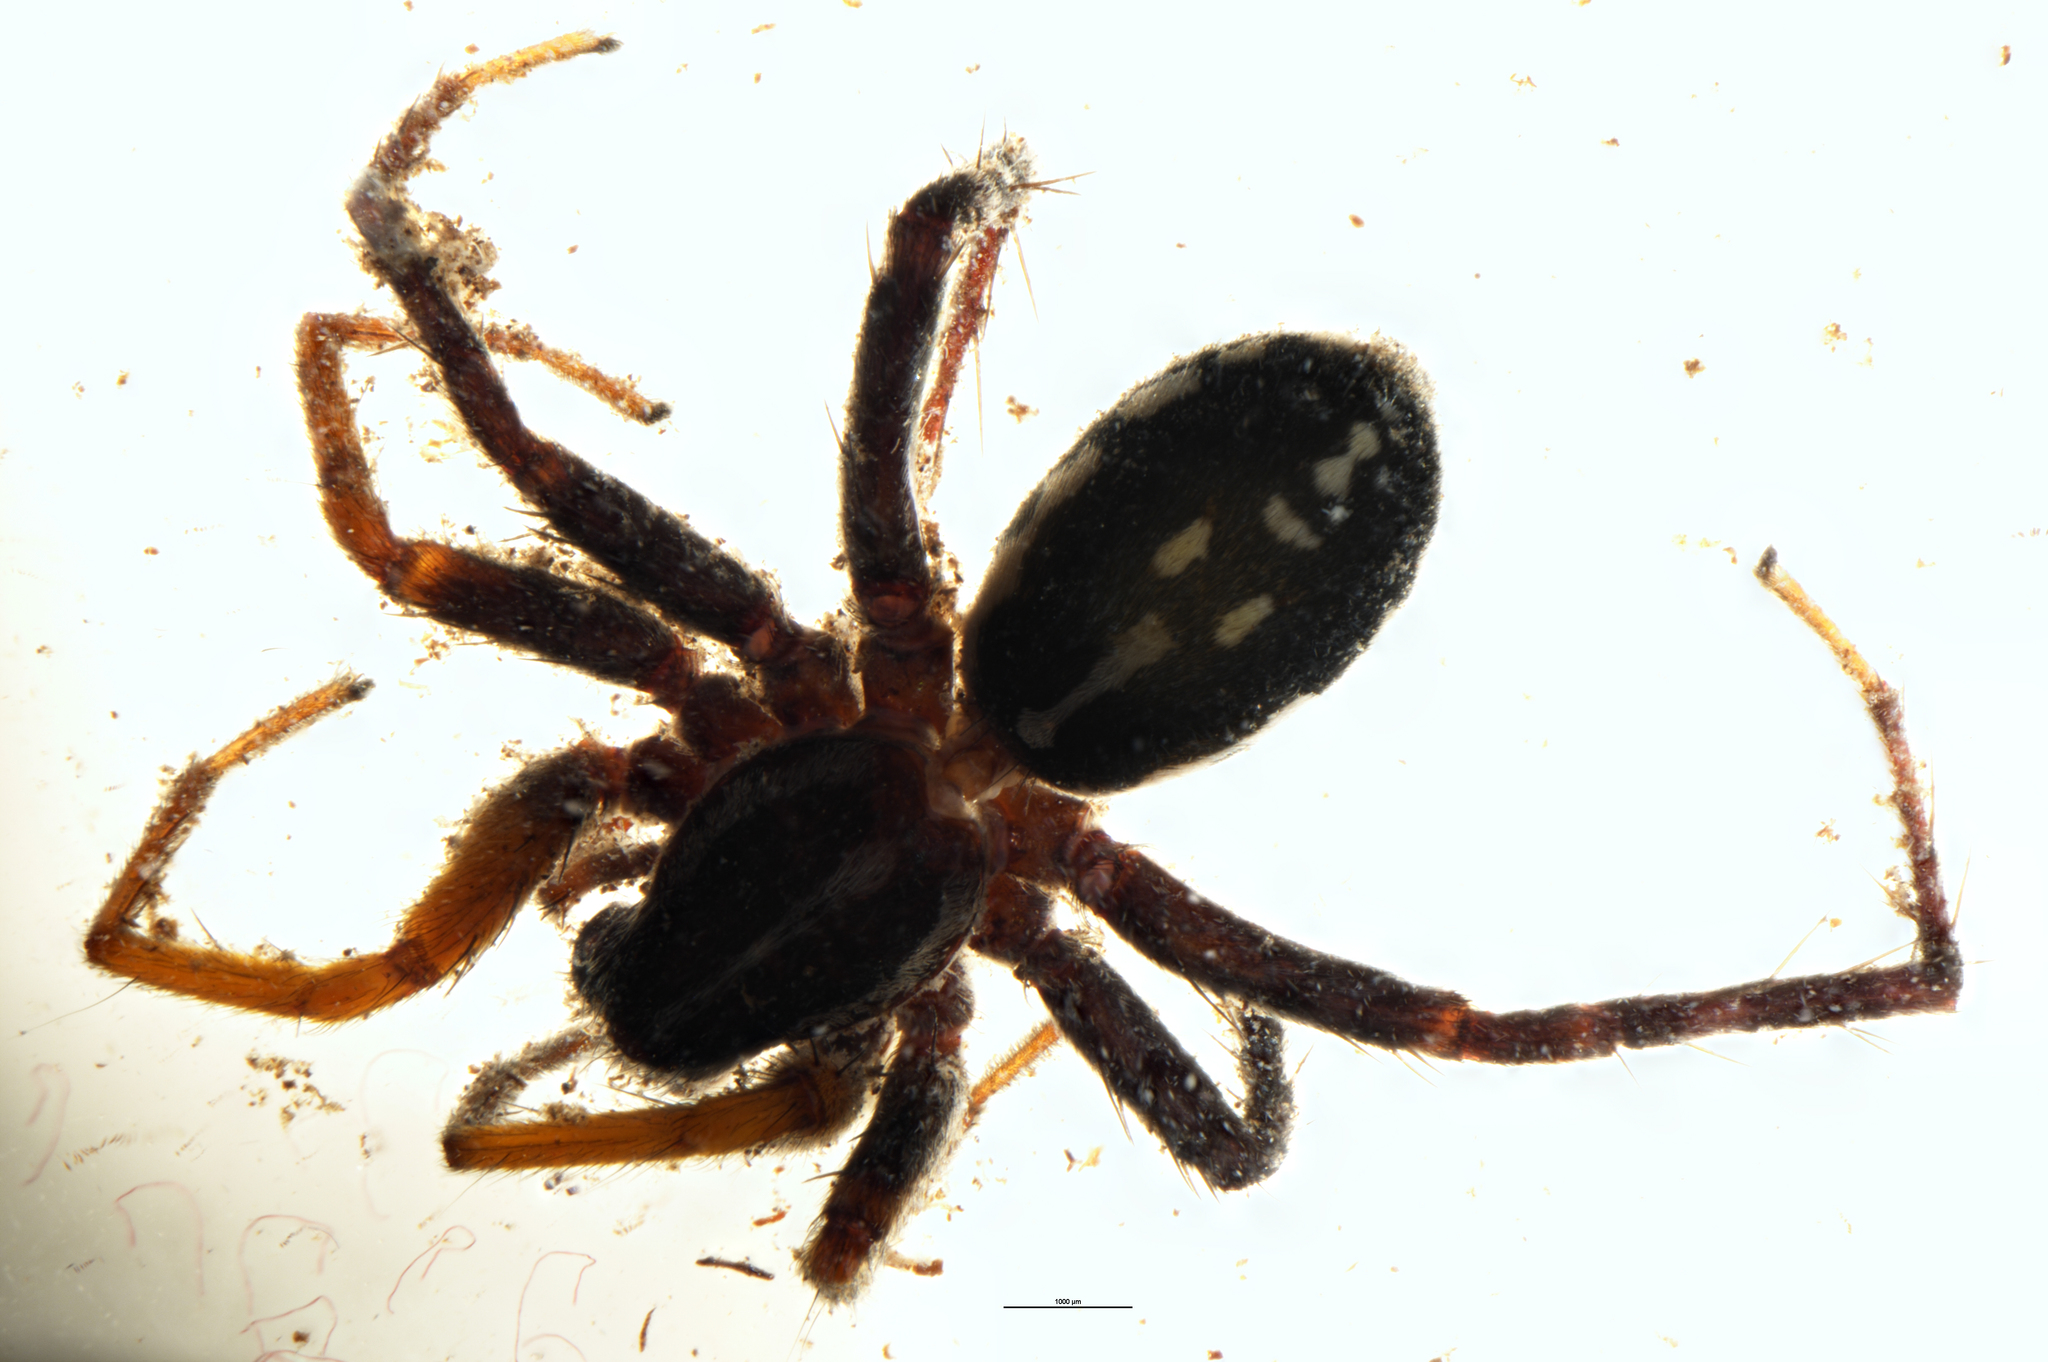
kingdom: Animalia
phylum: Arthropoda
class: Arachnida
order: Araneae
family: Corinnidae
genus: Nyssus
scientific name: Nyssus coloripes
